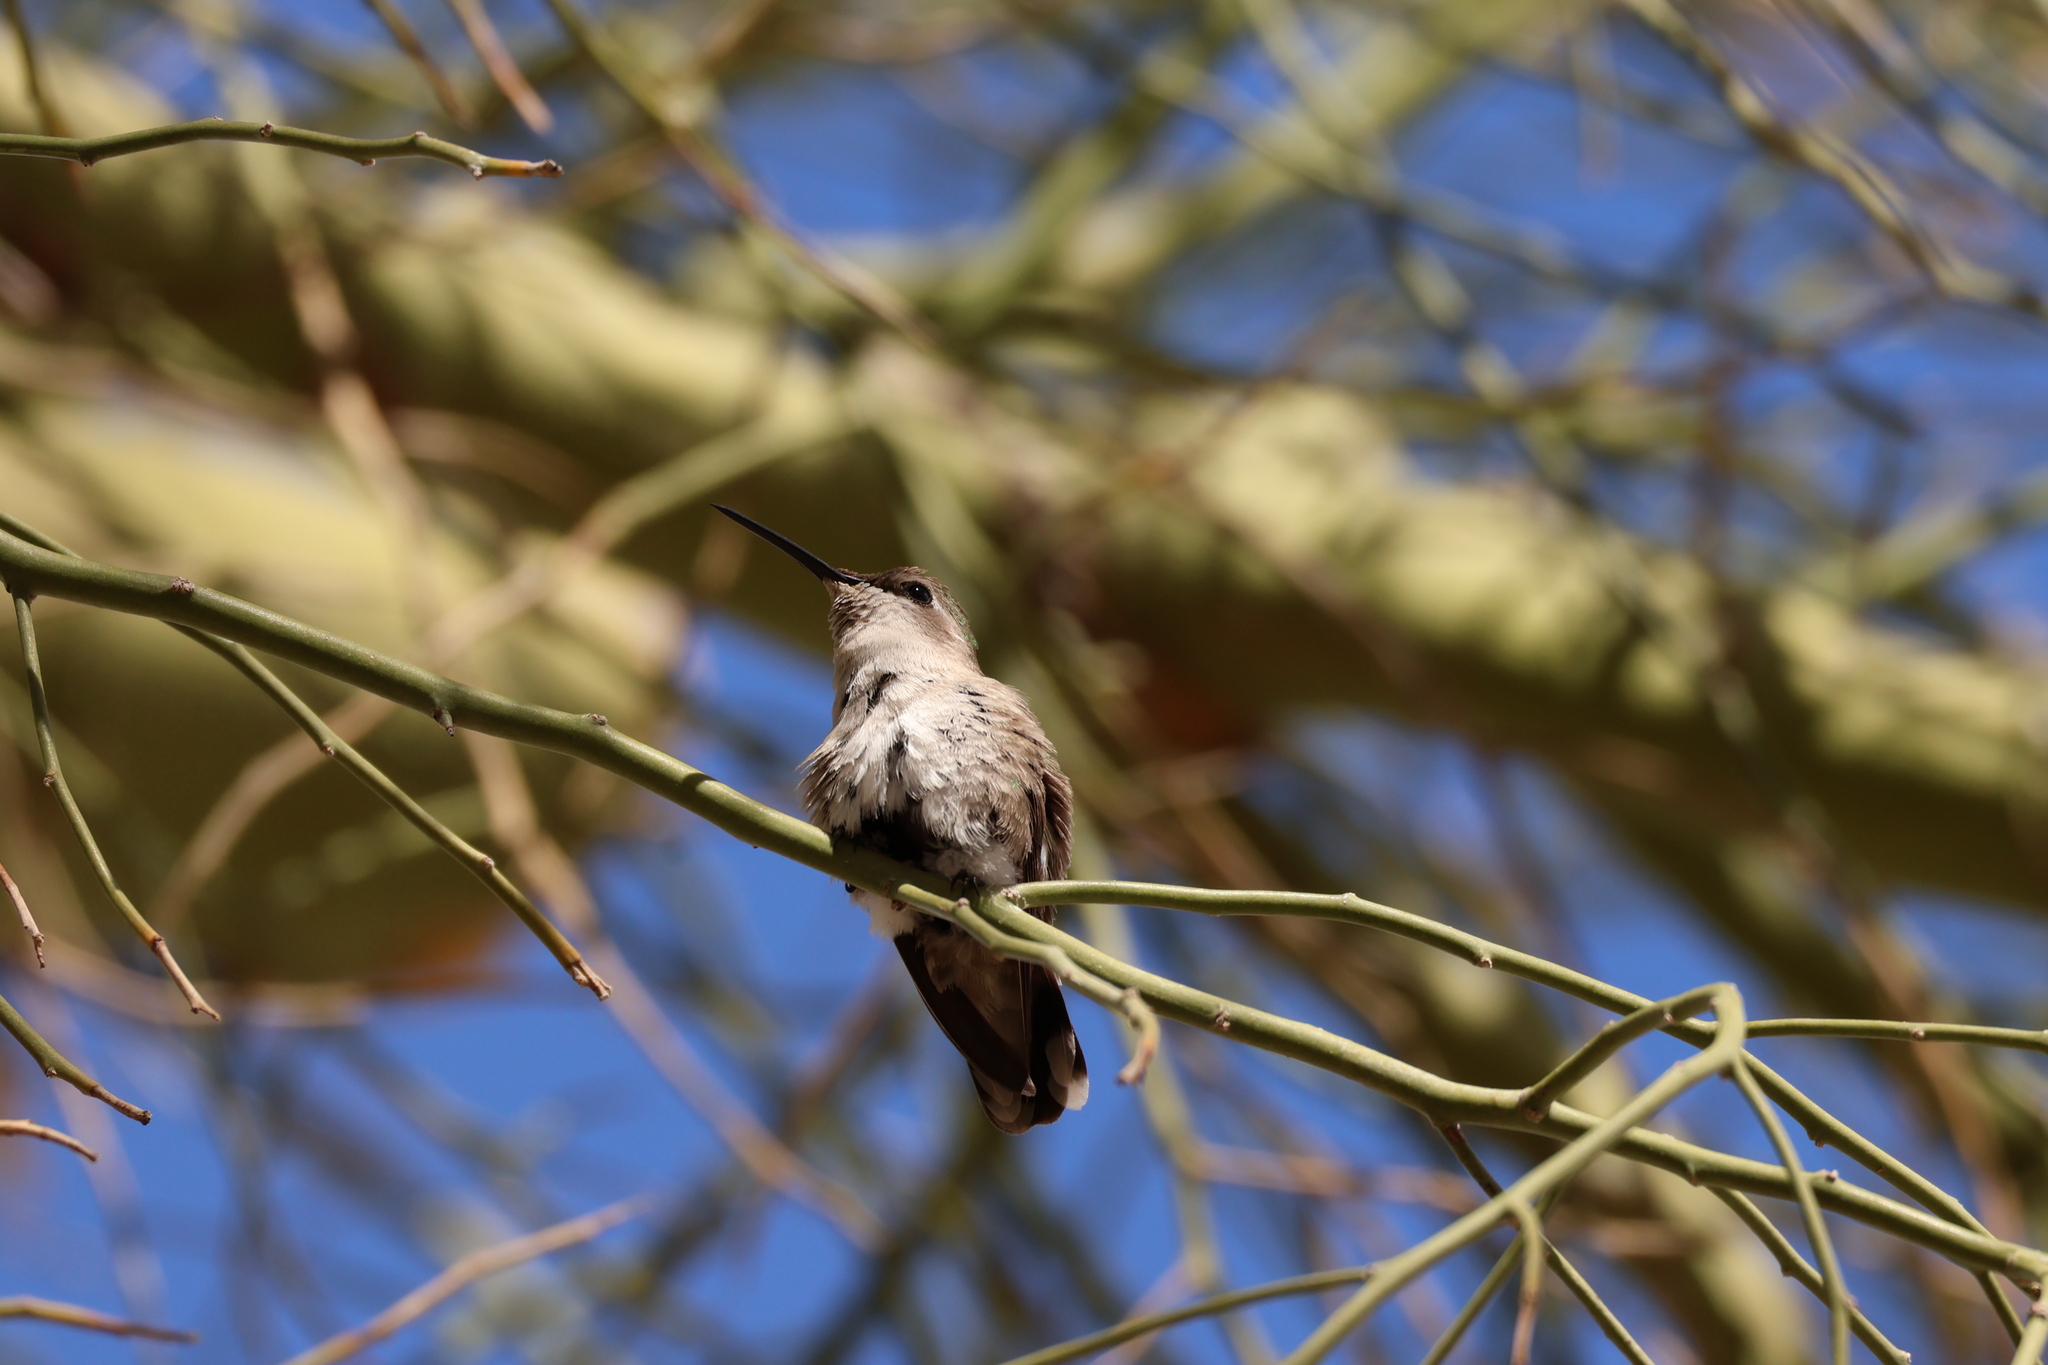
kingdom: Animalia
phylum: Chordata
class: Aves
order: Apodiformes
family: Trochilidae
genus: Calypte
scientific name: Calypte costae
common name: Costa's hummingbird
